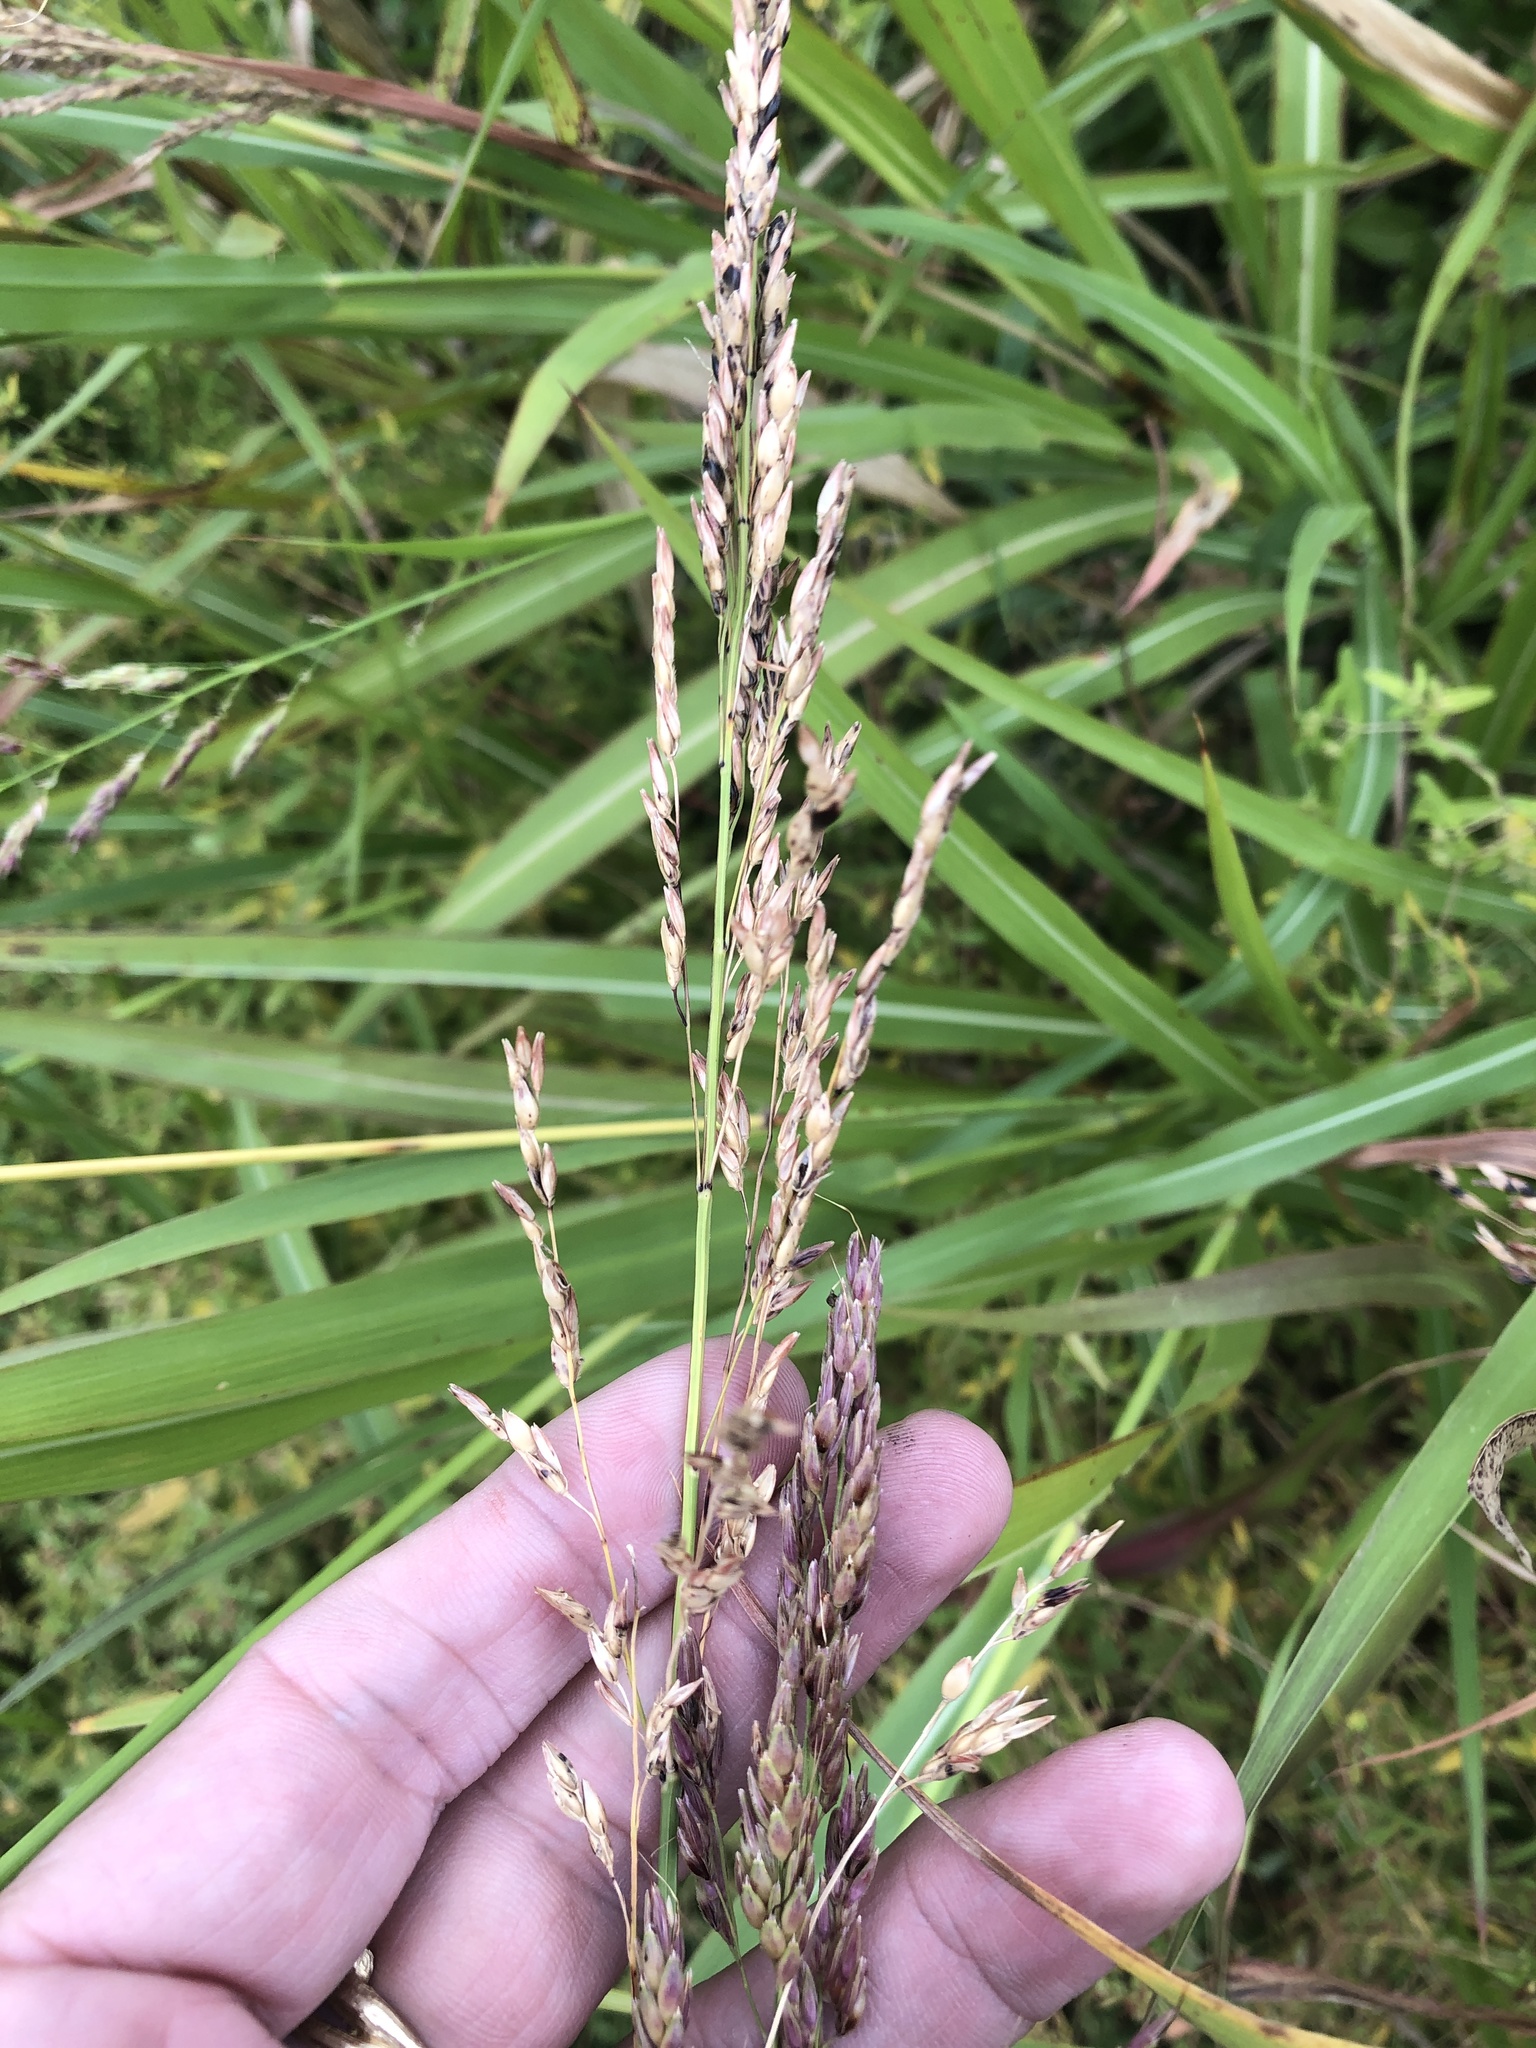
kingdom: Plantae
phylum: Tracheophyta
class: Liliopsida
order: Poales
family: Poaceae
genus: Sorghum
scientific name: Sorghum halepense
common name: Johnson-grass
